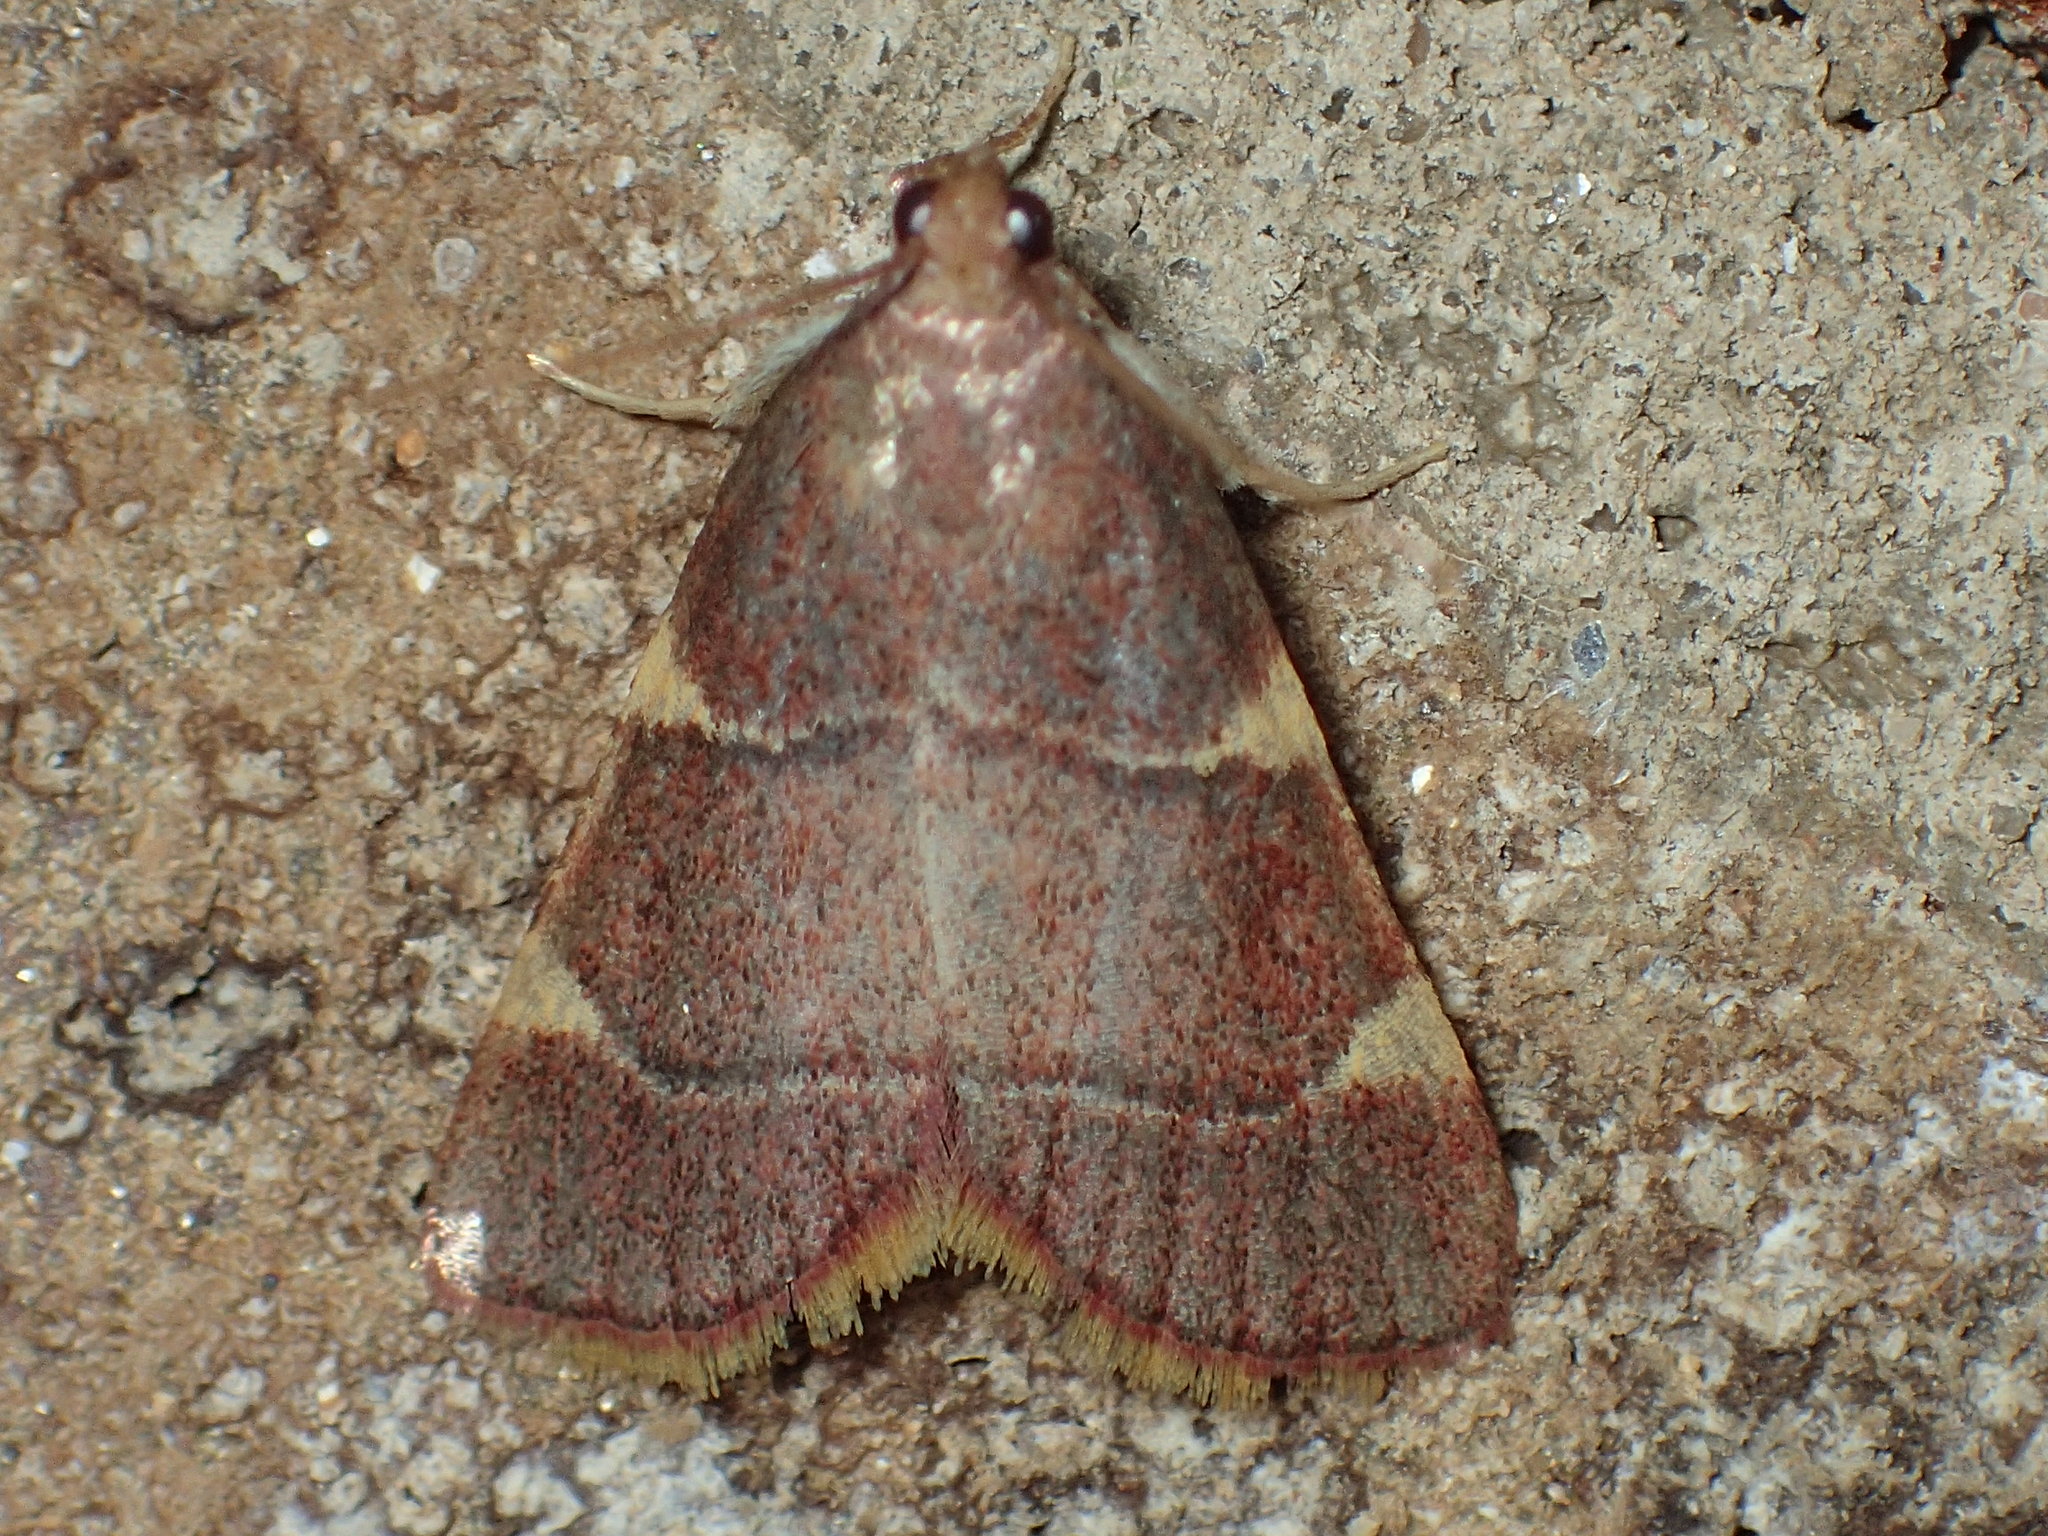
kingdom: Animalia
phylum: Arthropoda
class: Insecta
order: Lepidoptera
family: Pyralidae
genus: Hypsopygia
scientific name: Hypsopygia olinalis
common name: Yellow-fringed dolichomia moth
